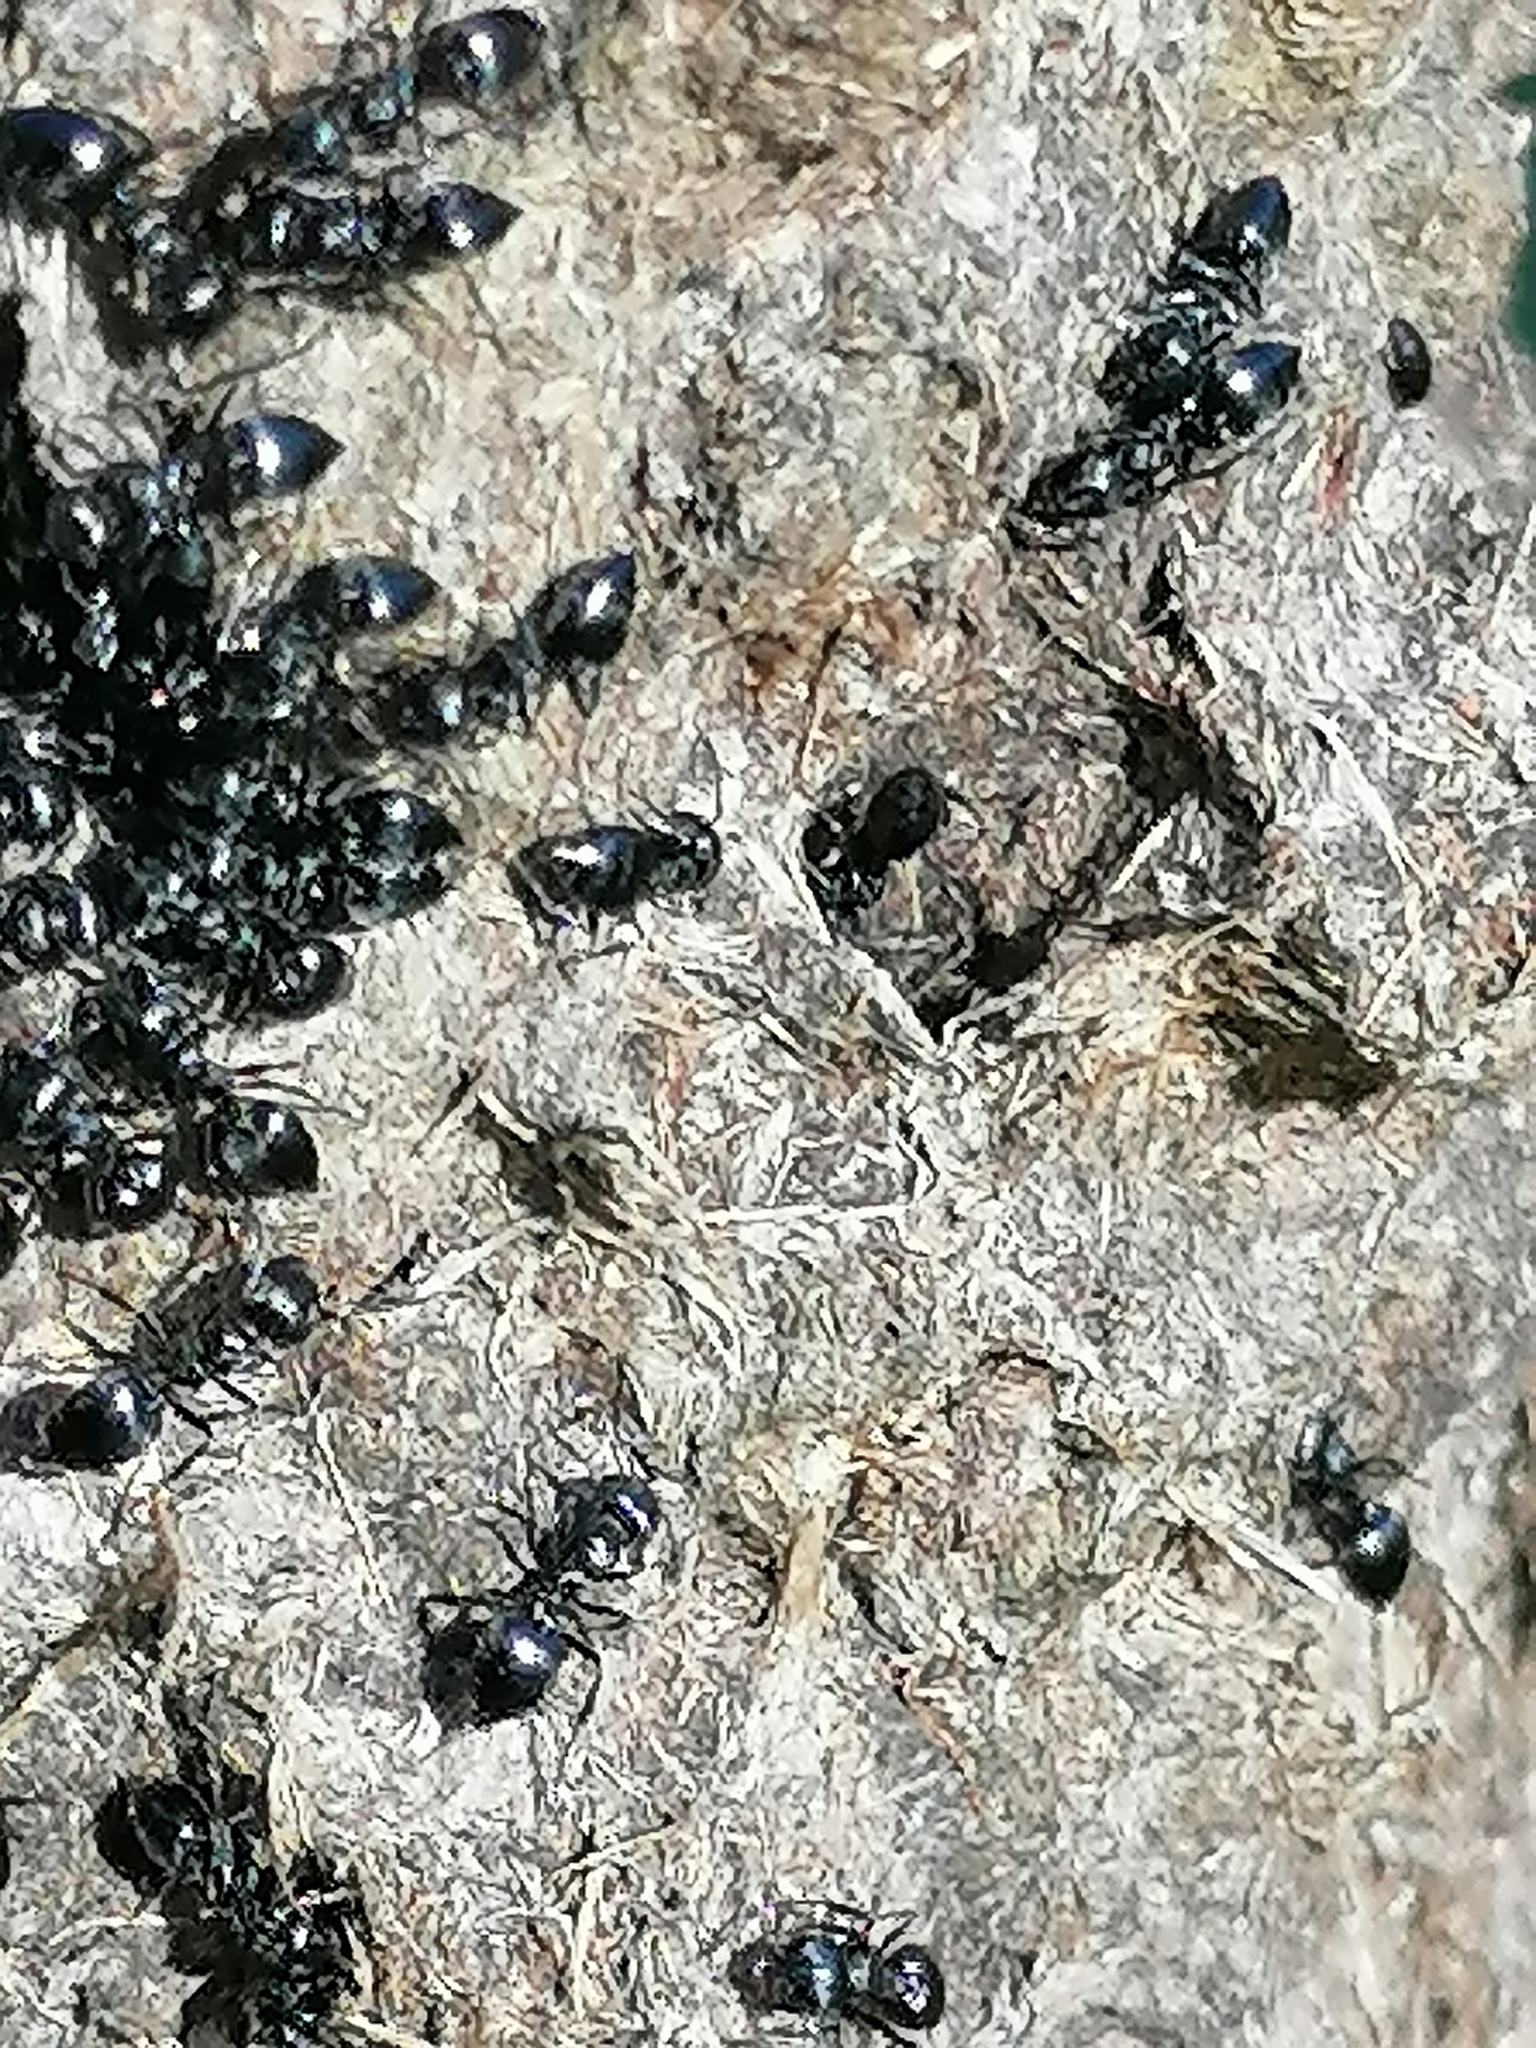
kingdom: Animalia
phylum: Arthropoda
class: Insecta
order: Hymenoptera
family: Formicidae
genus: Crematogaster
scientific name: Crematogaster peringueyi
